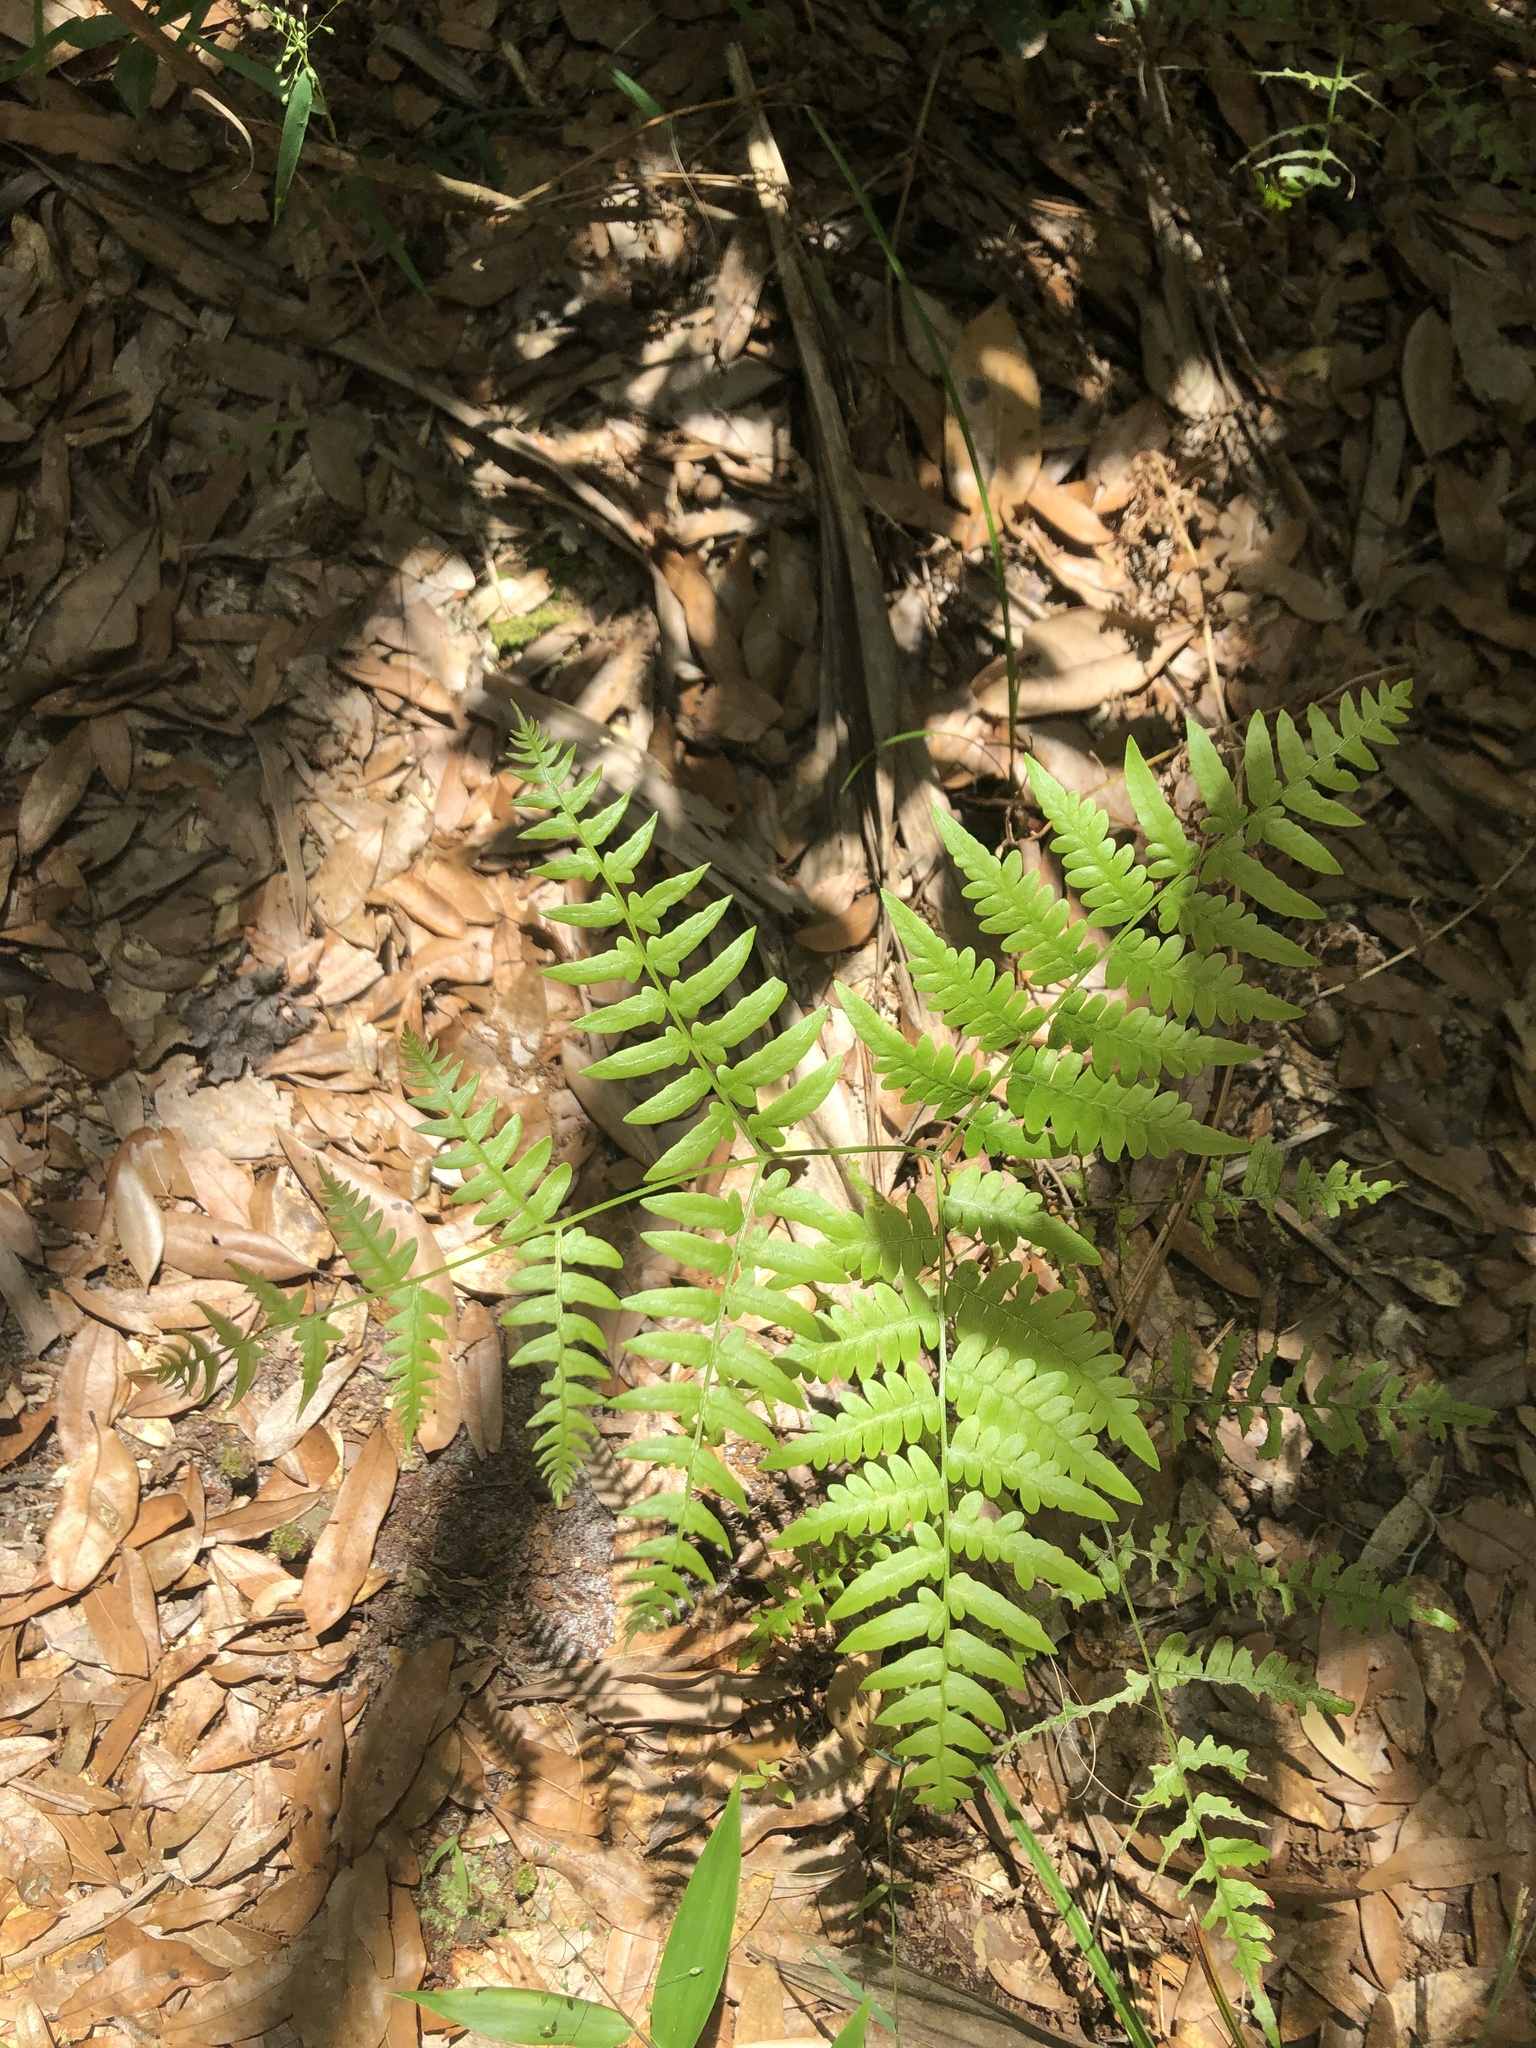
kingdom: Plantae
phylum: Tracheophyta
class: Polypodiopsida
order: Polypodiales
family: Dennstaedtiaceae
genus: Pteridium
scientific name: Pteridium
